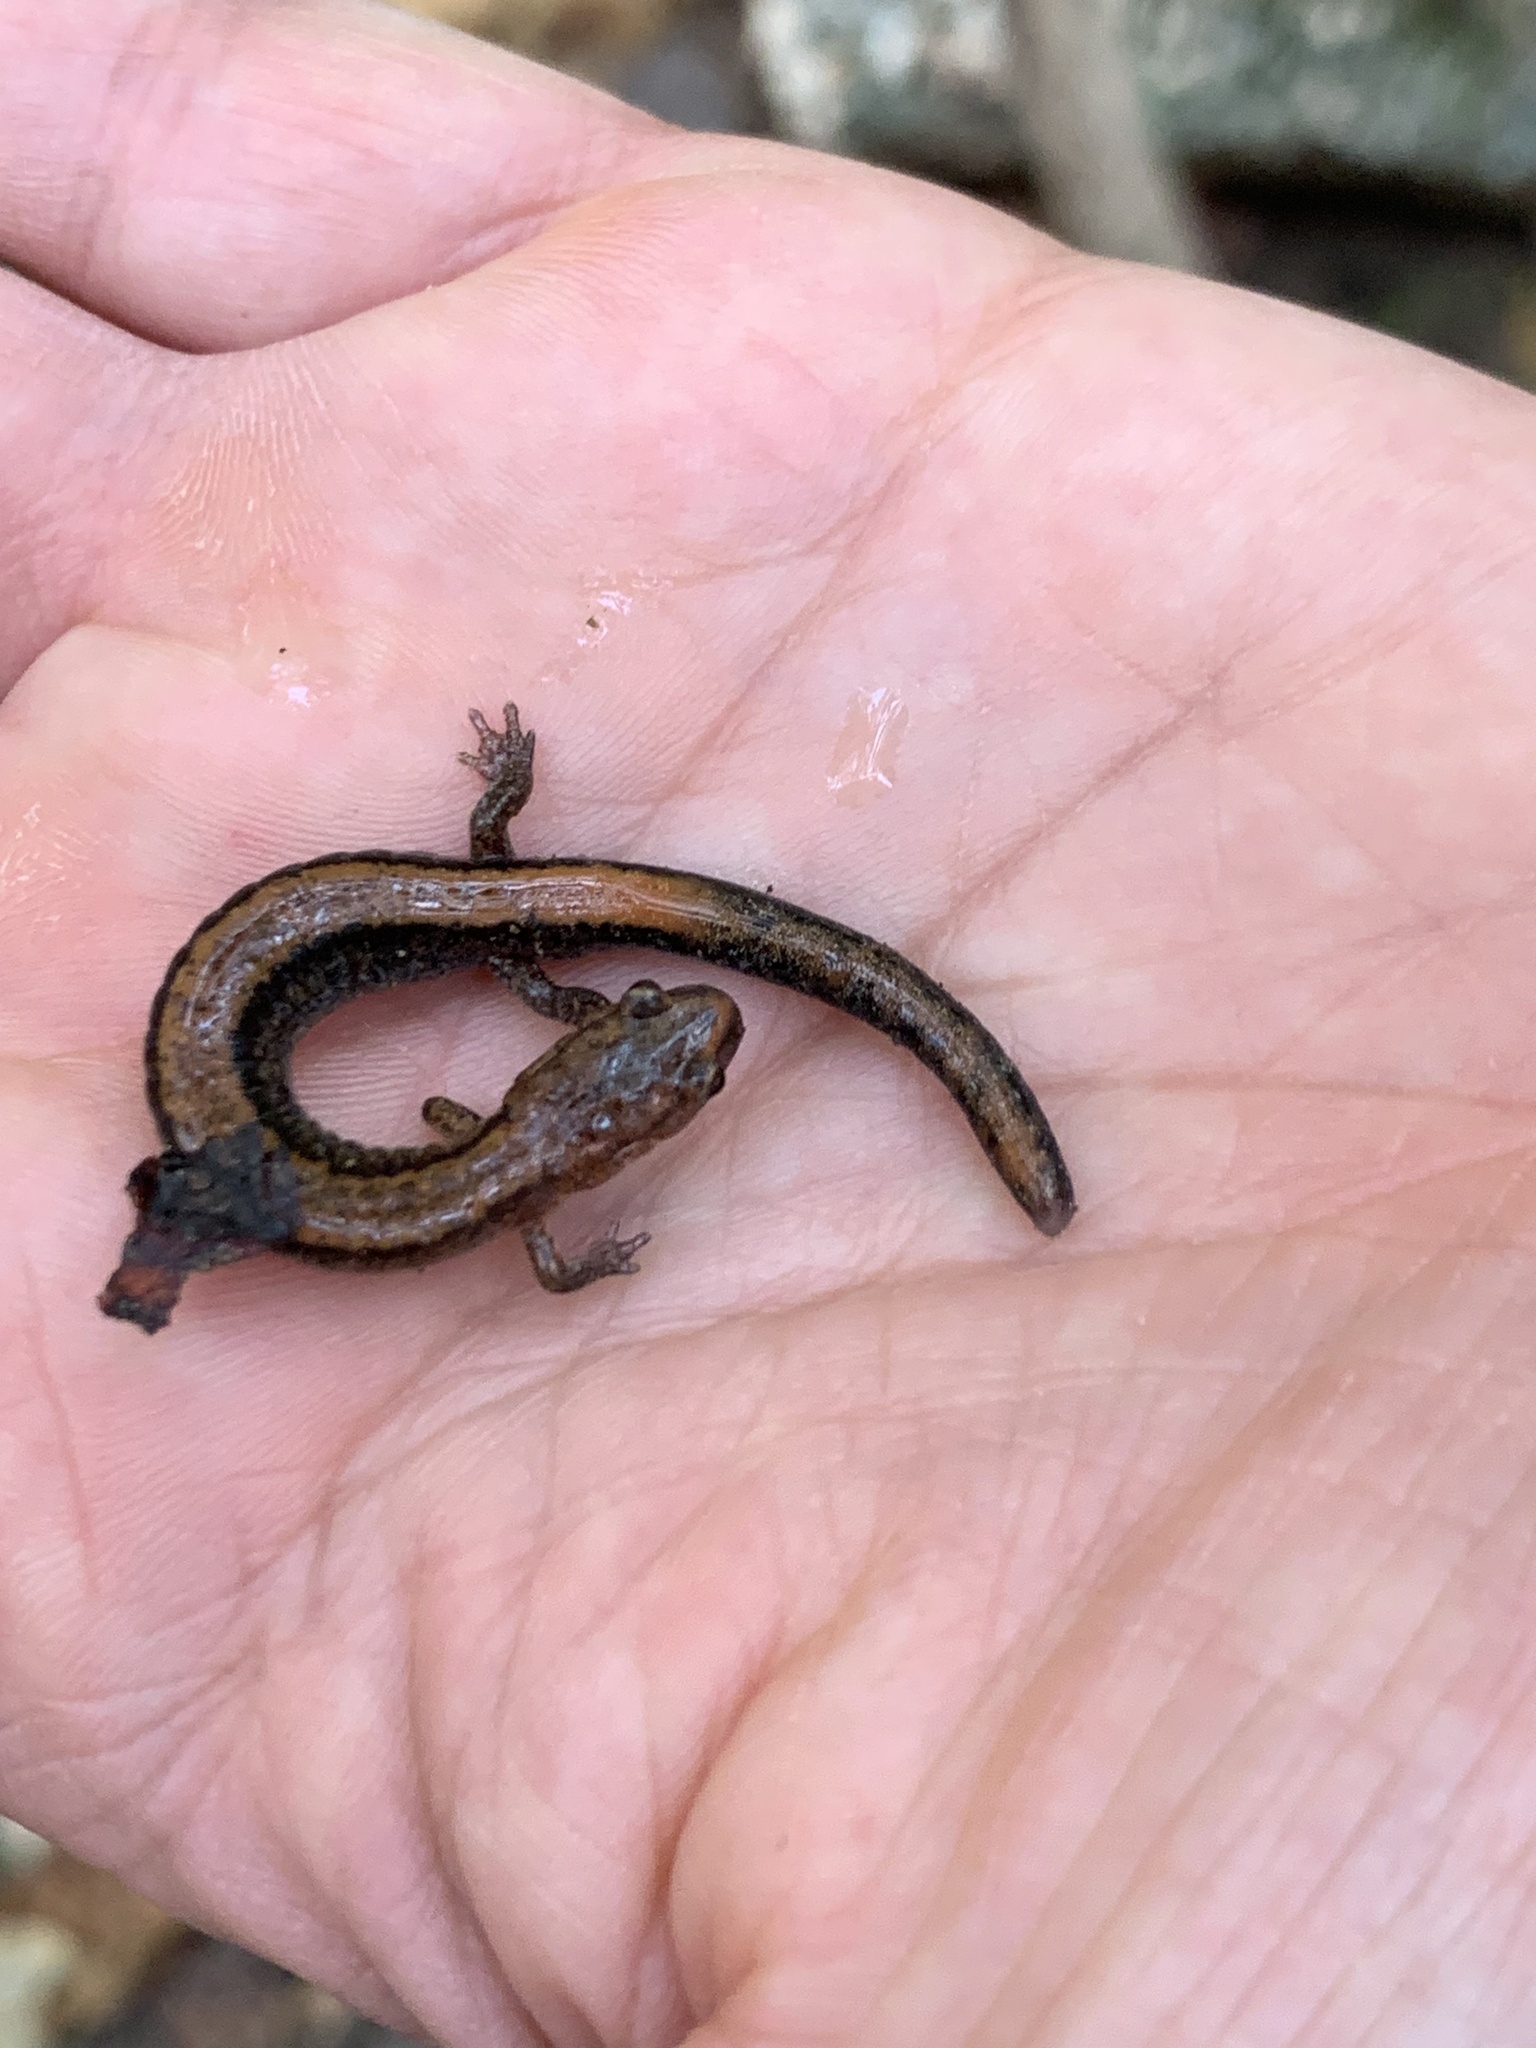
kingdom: Animalia
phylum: Chordata
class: Amphibia
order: Caudata
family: Plethodontidae
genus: Plethodon
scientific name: Plethodon cinereus
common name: Redback salamander
